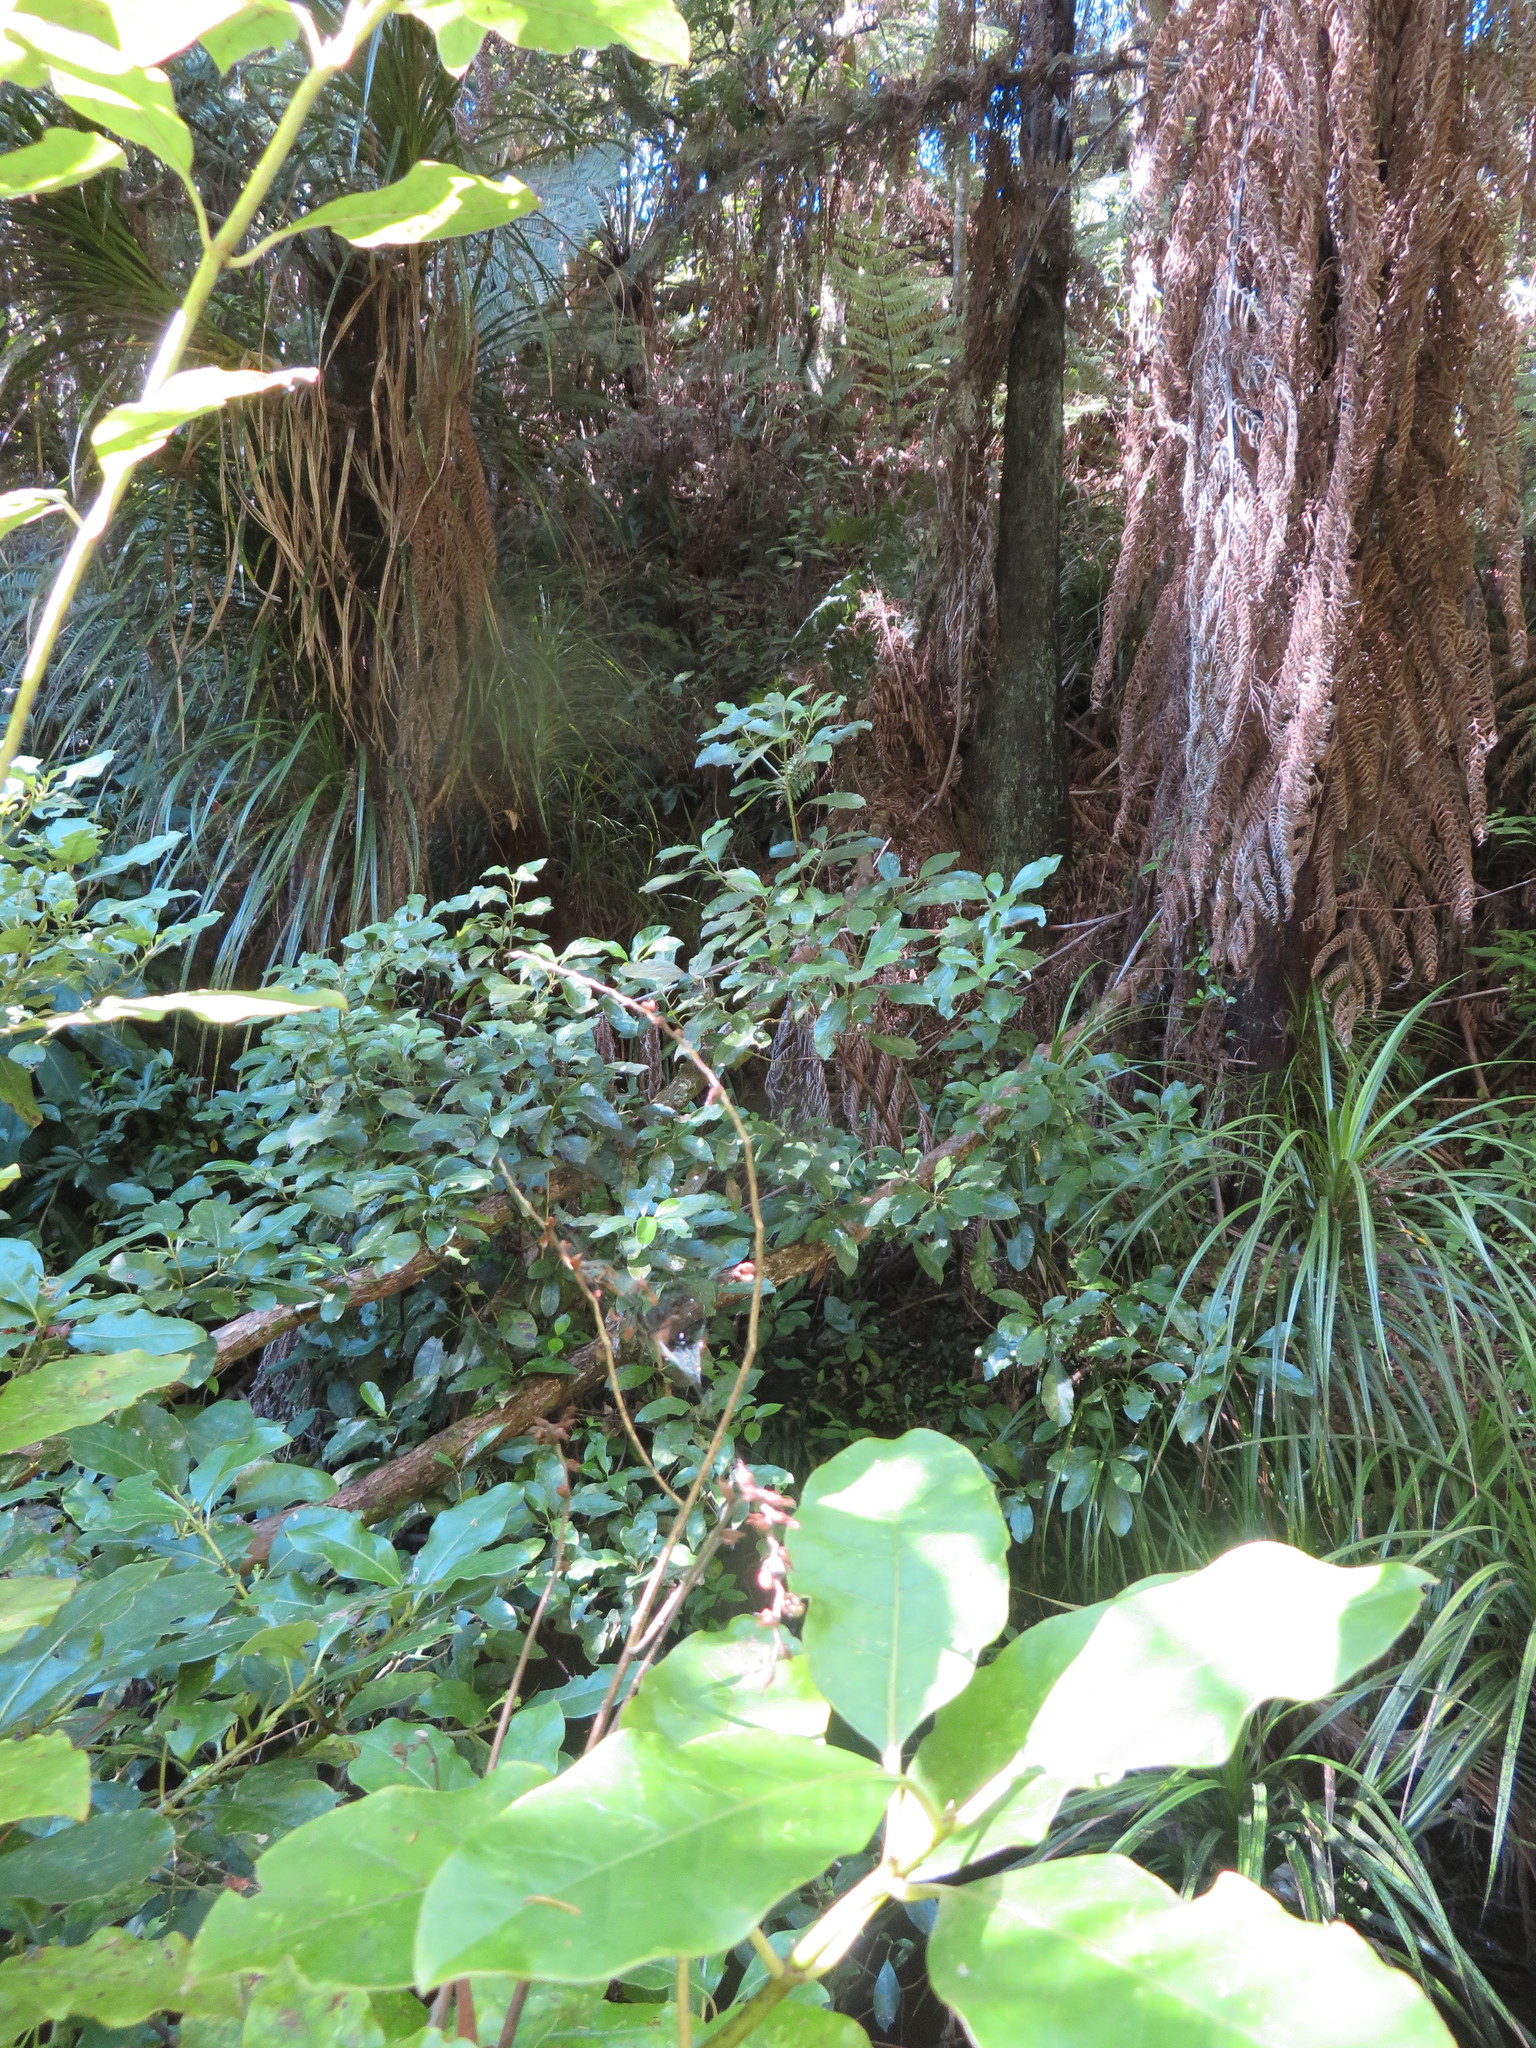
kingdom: Plantae
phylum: Tracheophyta
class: Magnoliopsida
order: Gentianales
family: Rubiaceae
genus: Coprosma
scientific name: Coprosma autumnalis
